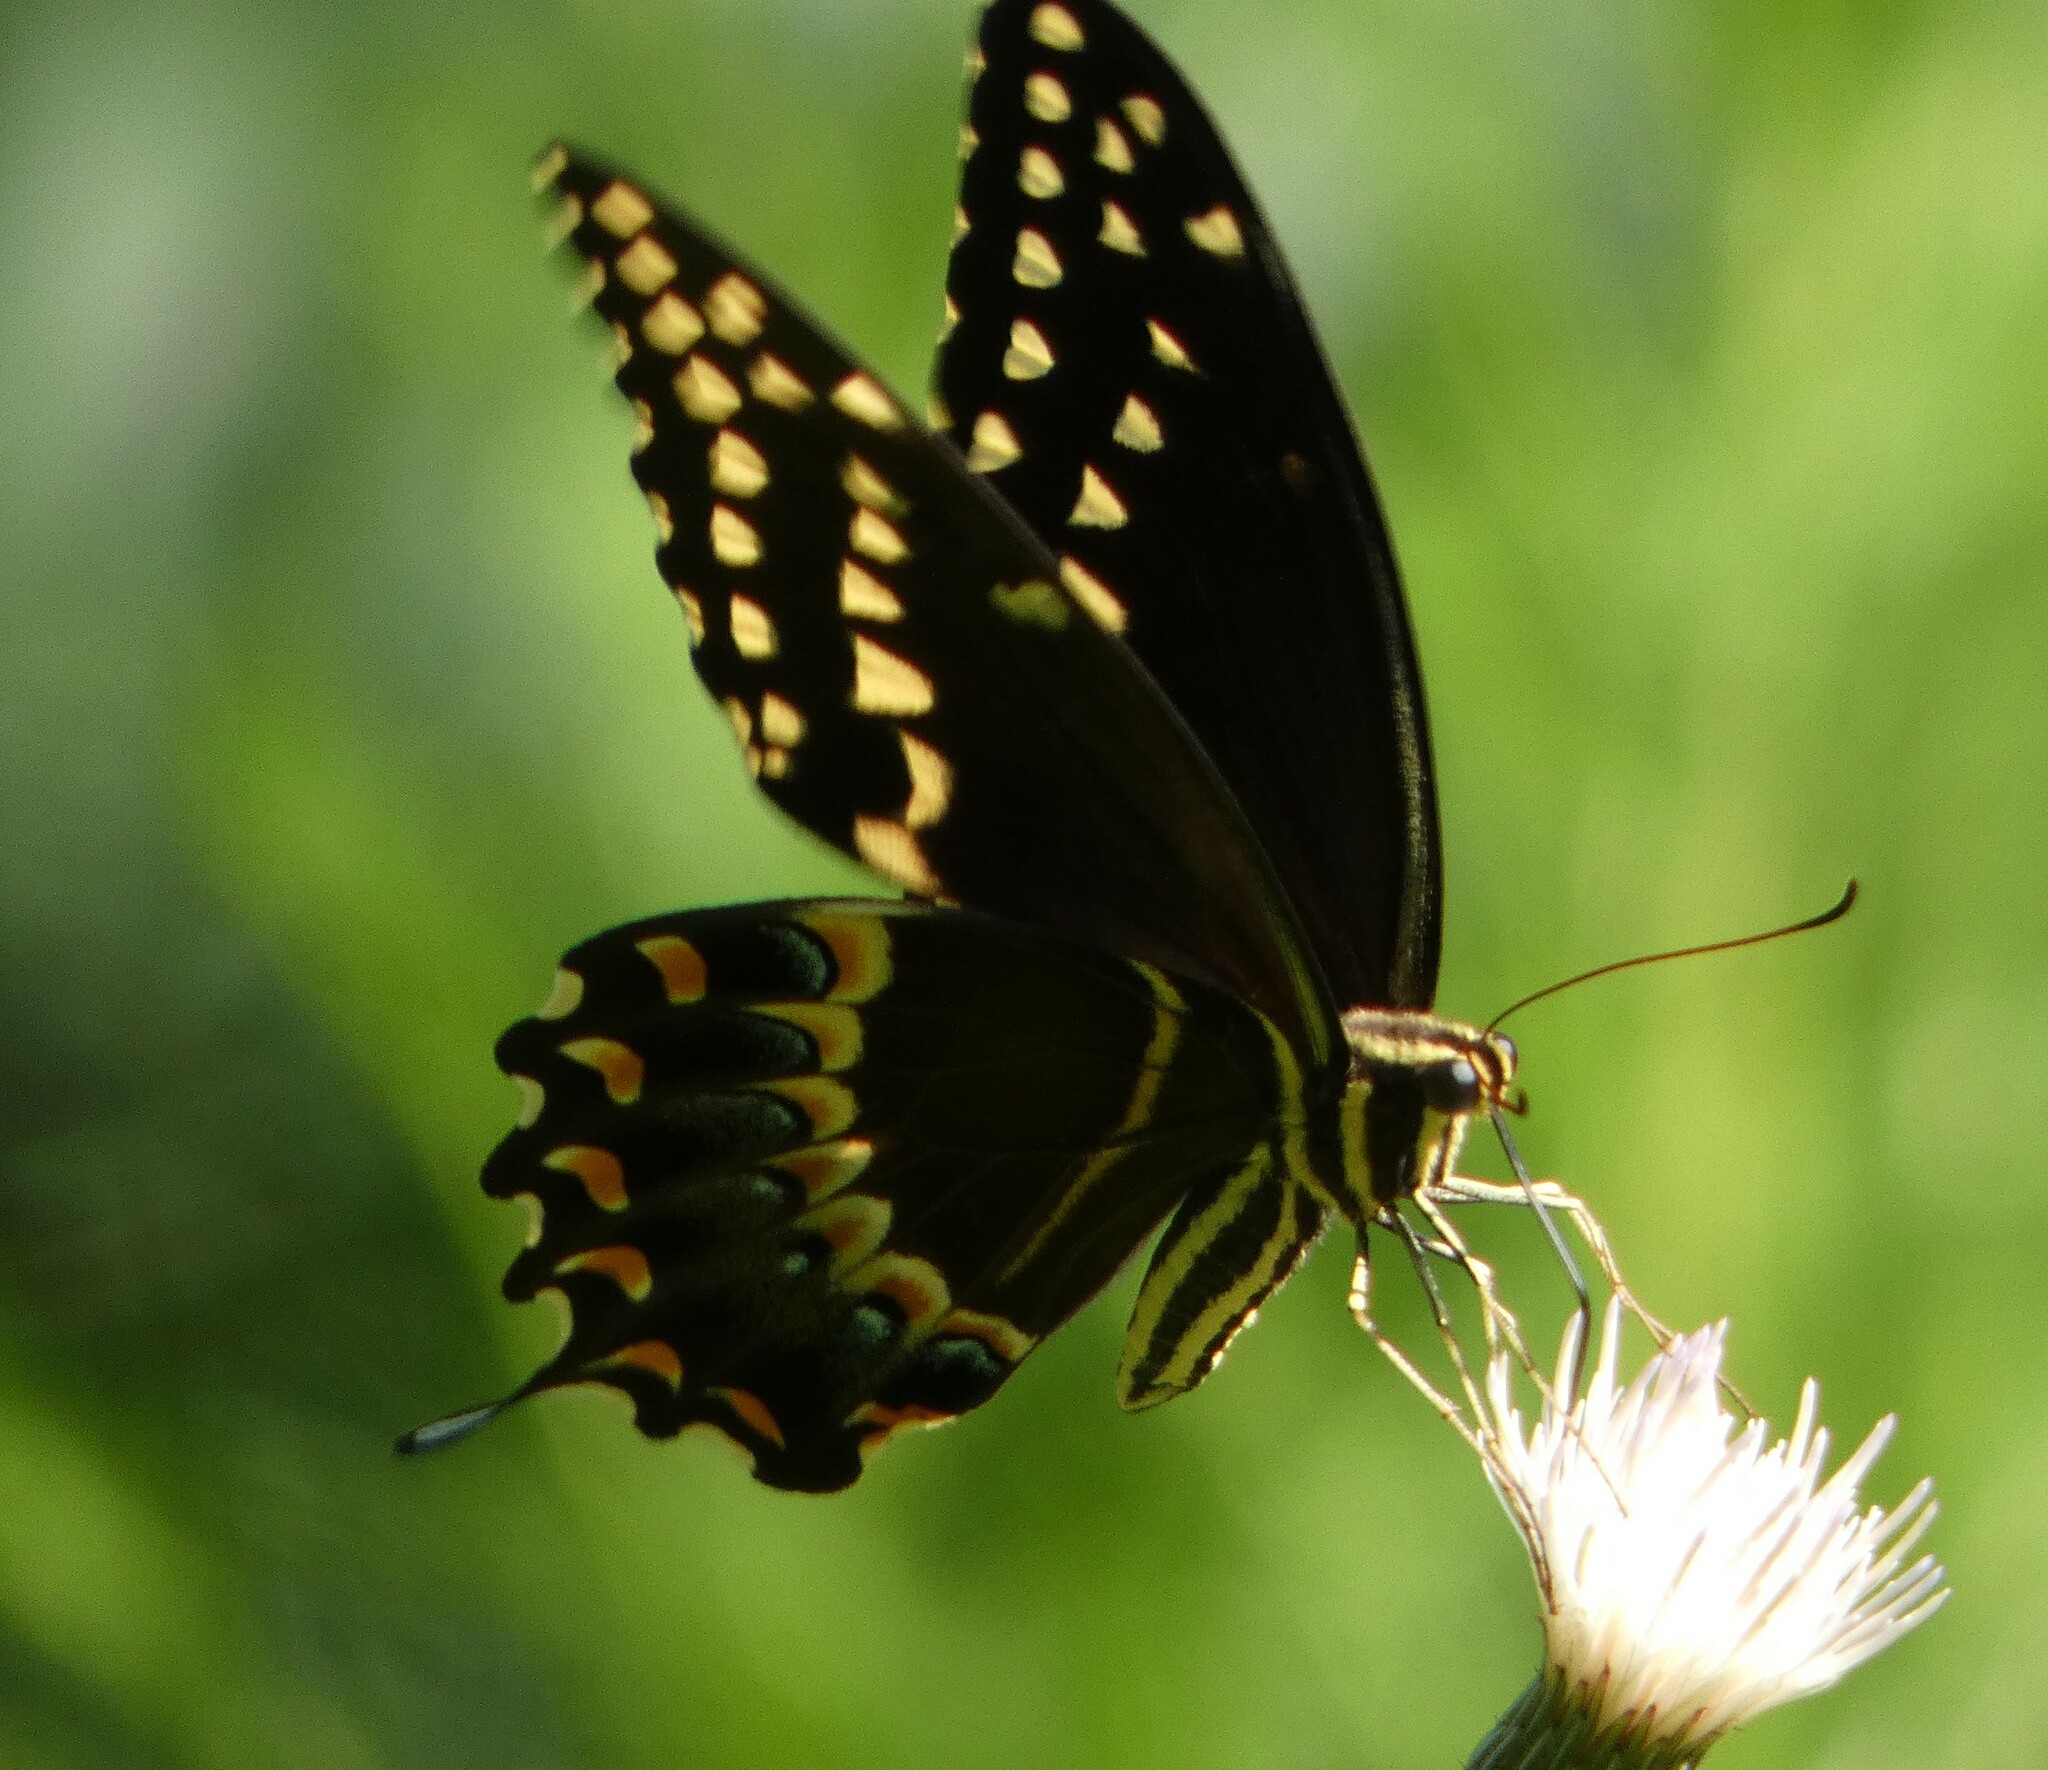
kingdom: Animalia
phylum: Arthropoda
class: Insecta
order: Lepidoptera
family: Papilionidae
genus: Papilio
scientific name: Papilio palamedes
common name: Palamedes swallowtail
